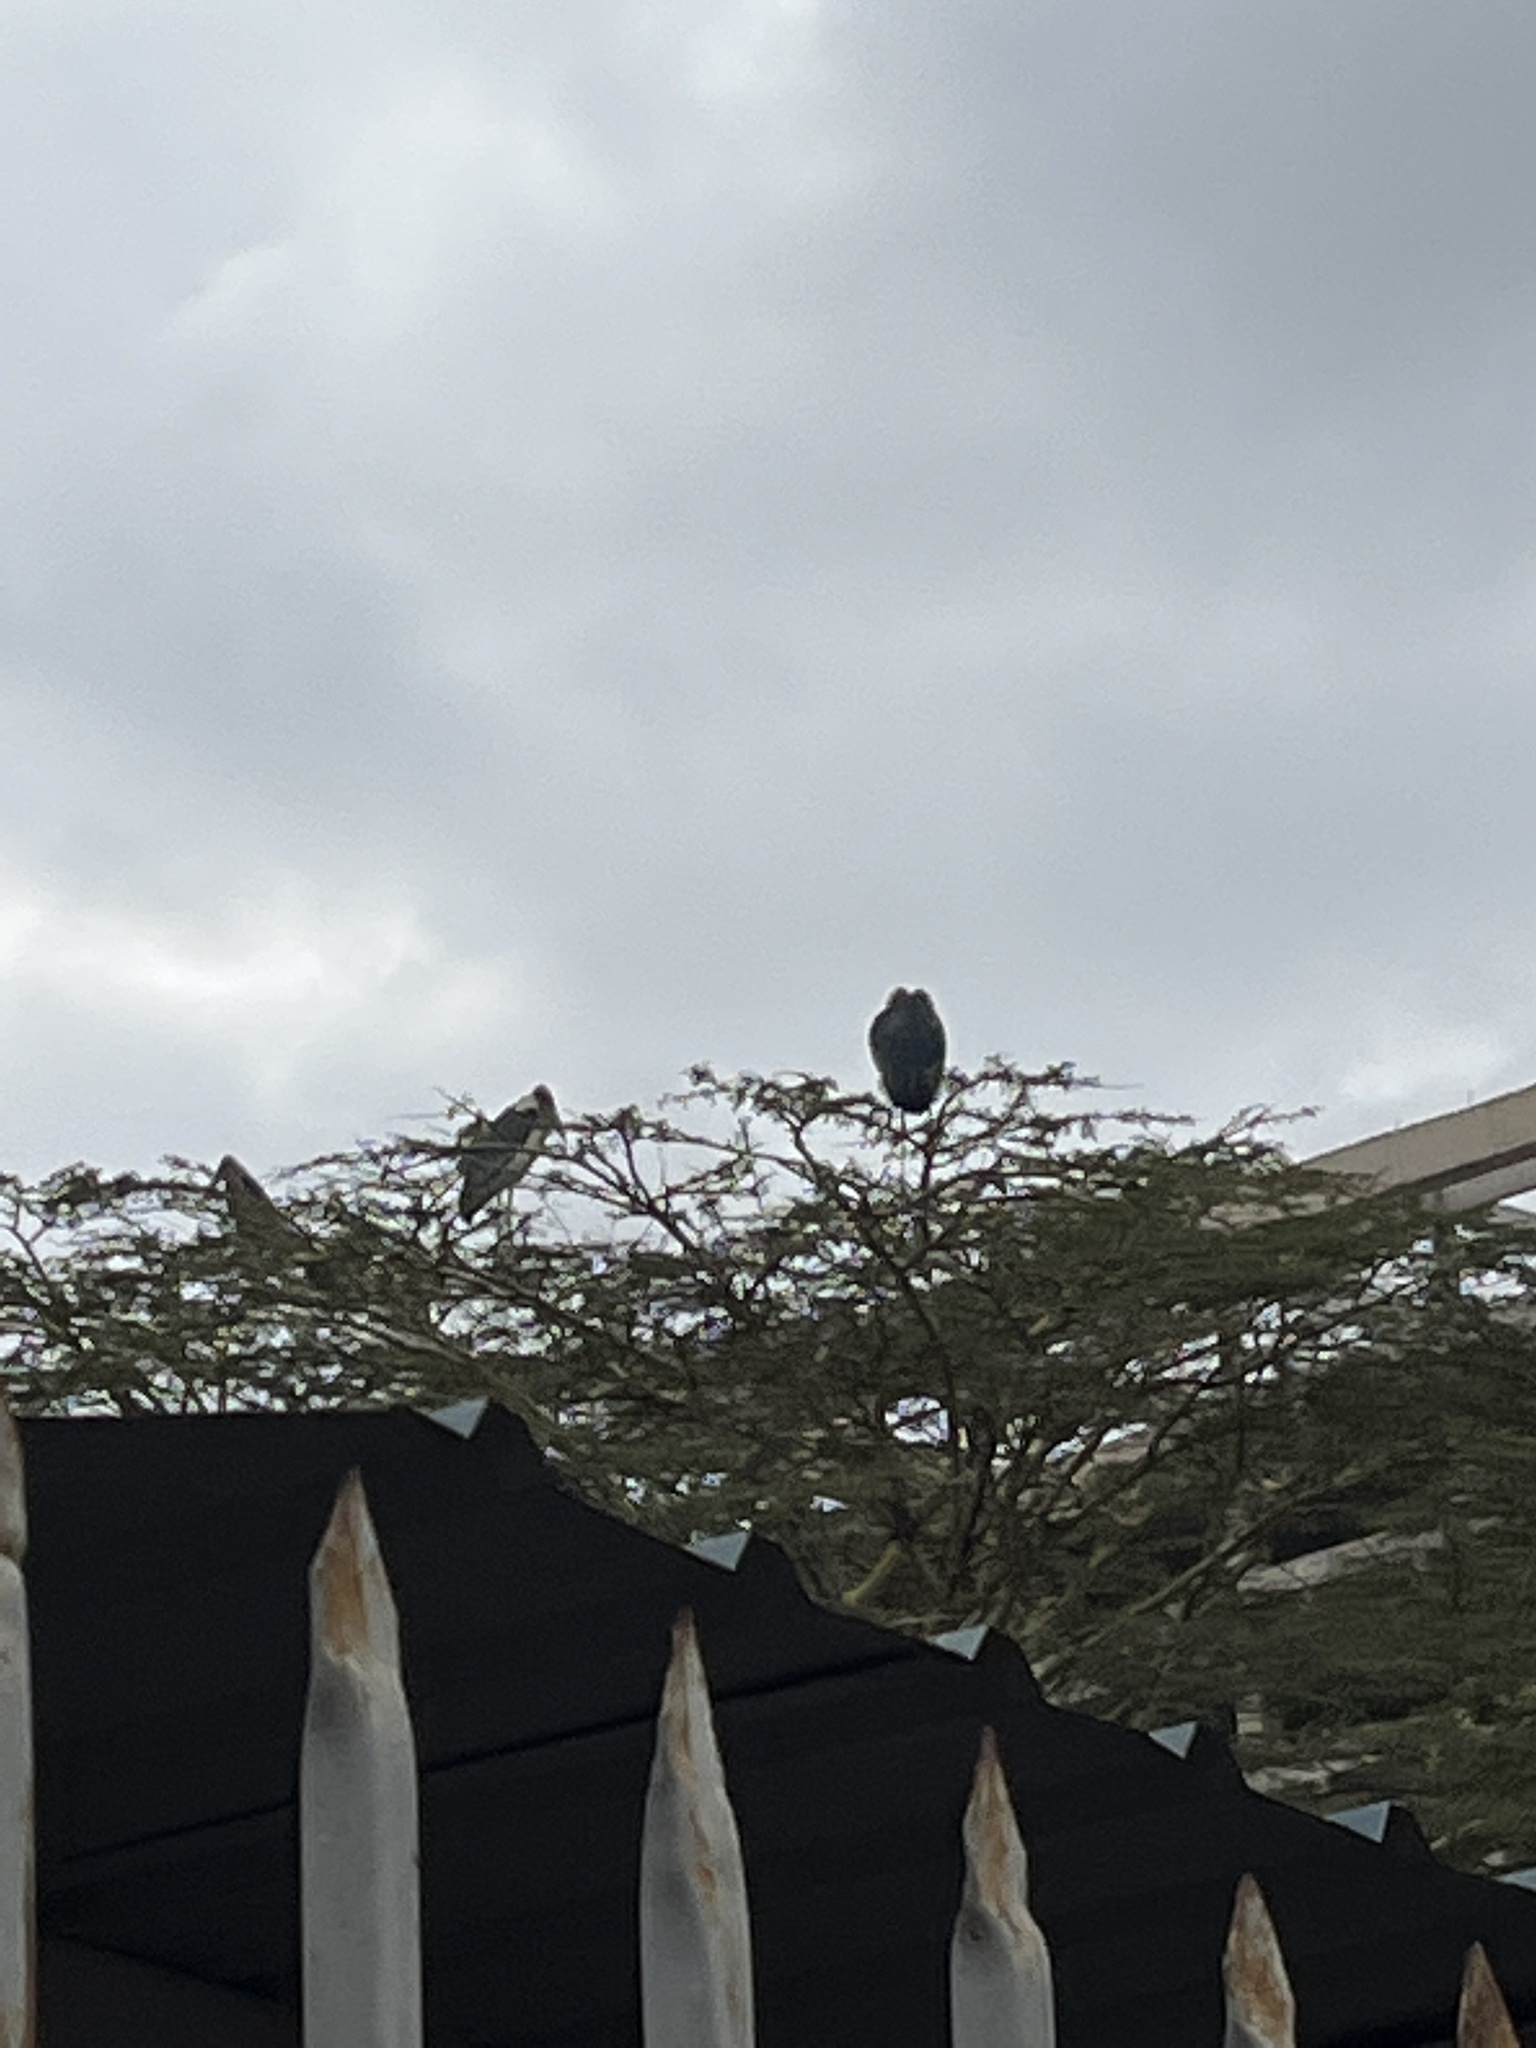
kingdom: Animalia
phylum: Chordata
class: Aves
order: Ciconiiformes
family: Ciconiidae
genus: Leptoptilos
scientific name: Leptoptilos crumenifer
